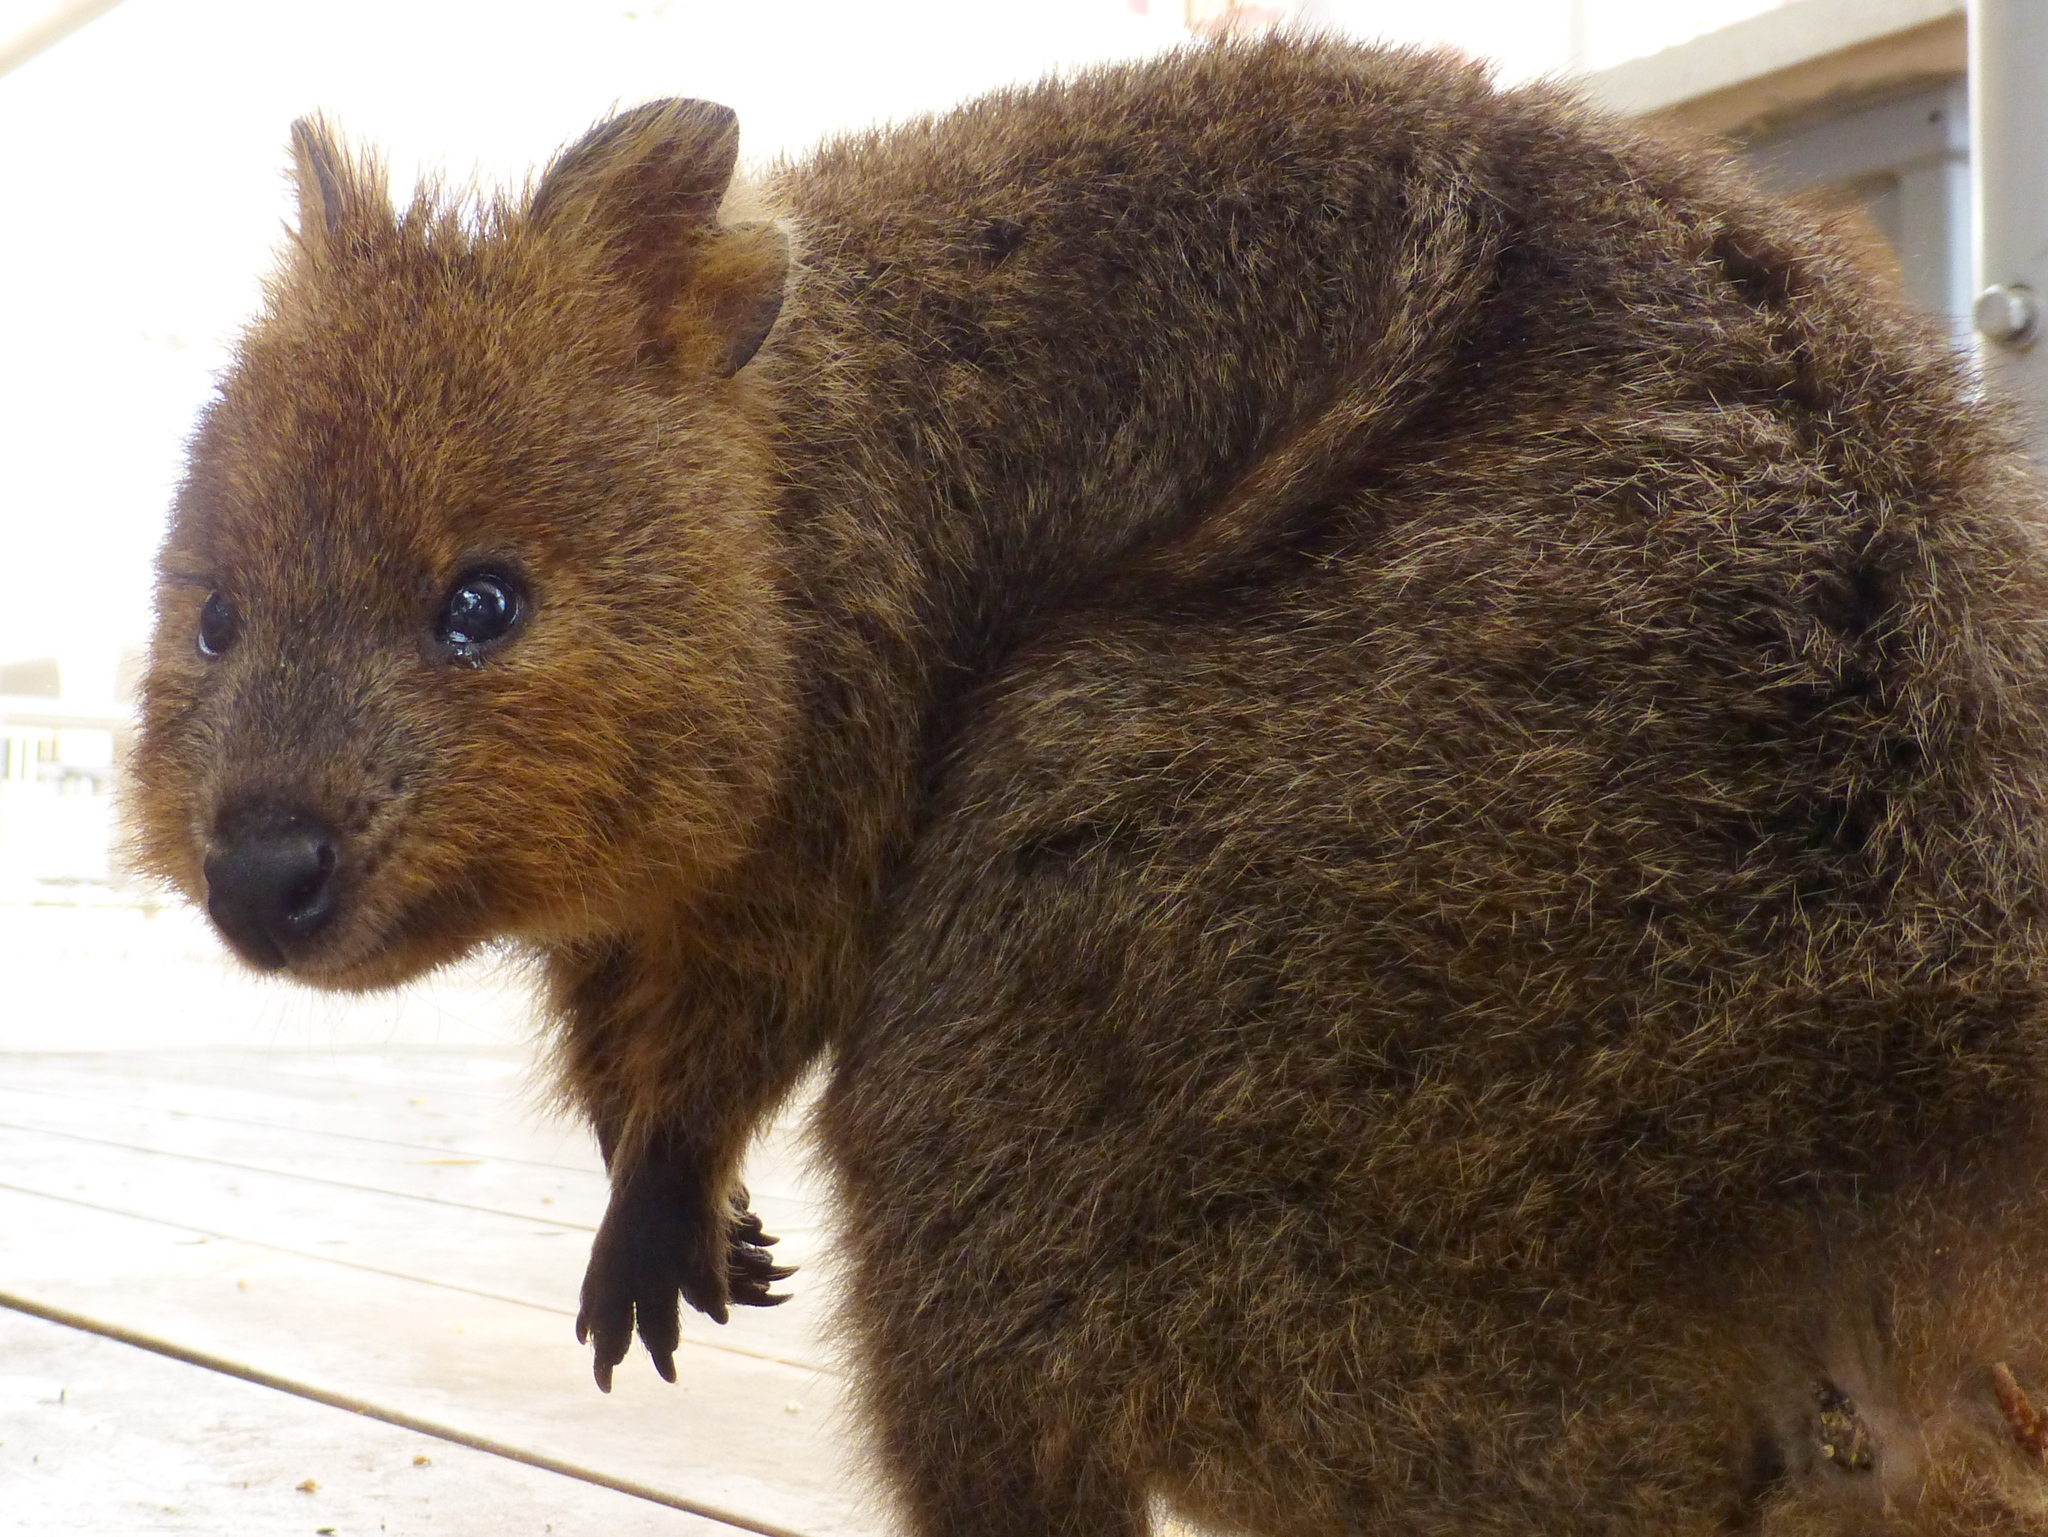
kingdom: Animalia
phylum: Chordata
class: Mammalia
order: Diprotodontia
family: Macropodidae
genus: Setonix
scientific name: Setonix brachyurus
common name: Quokka
